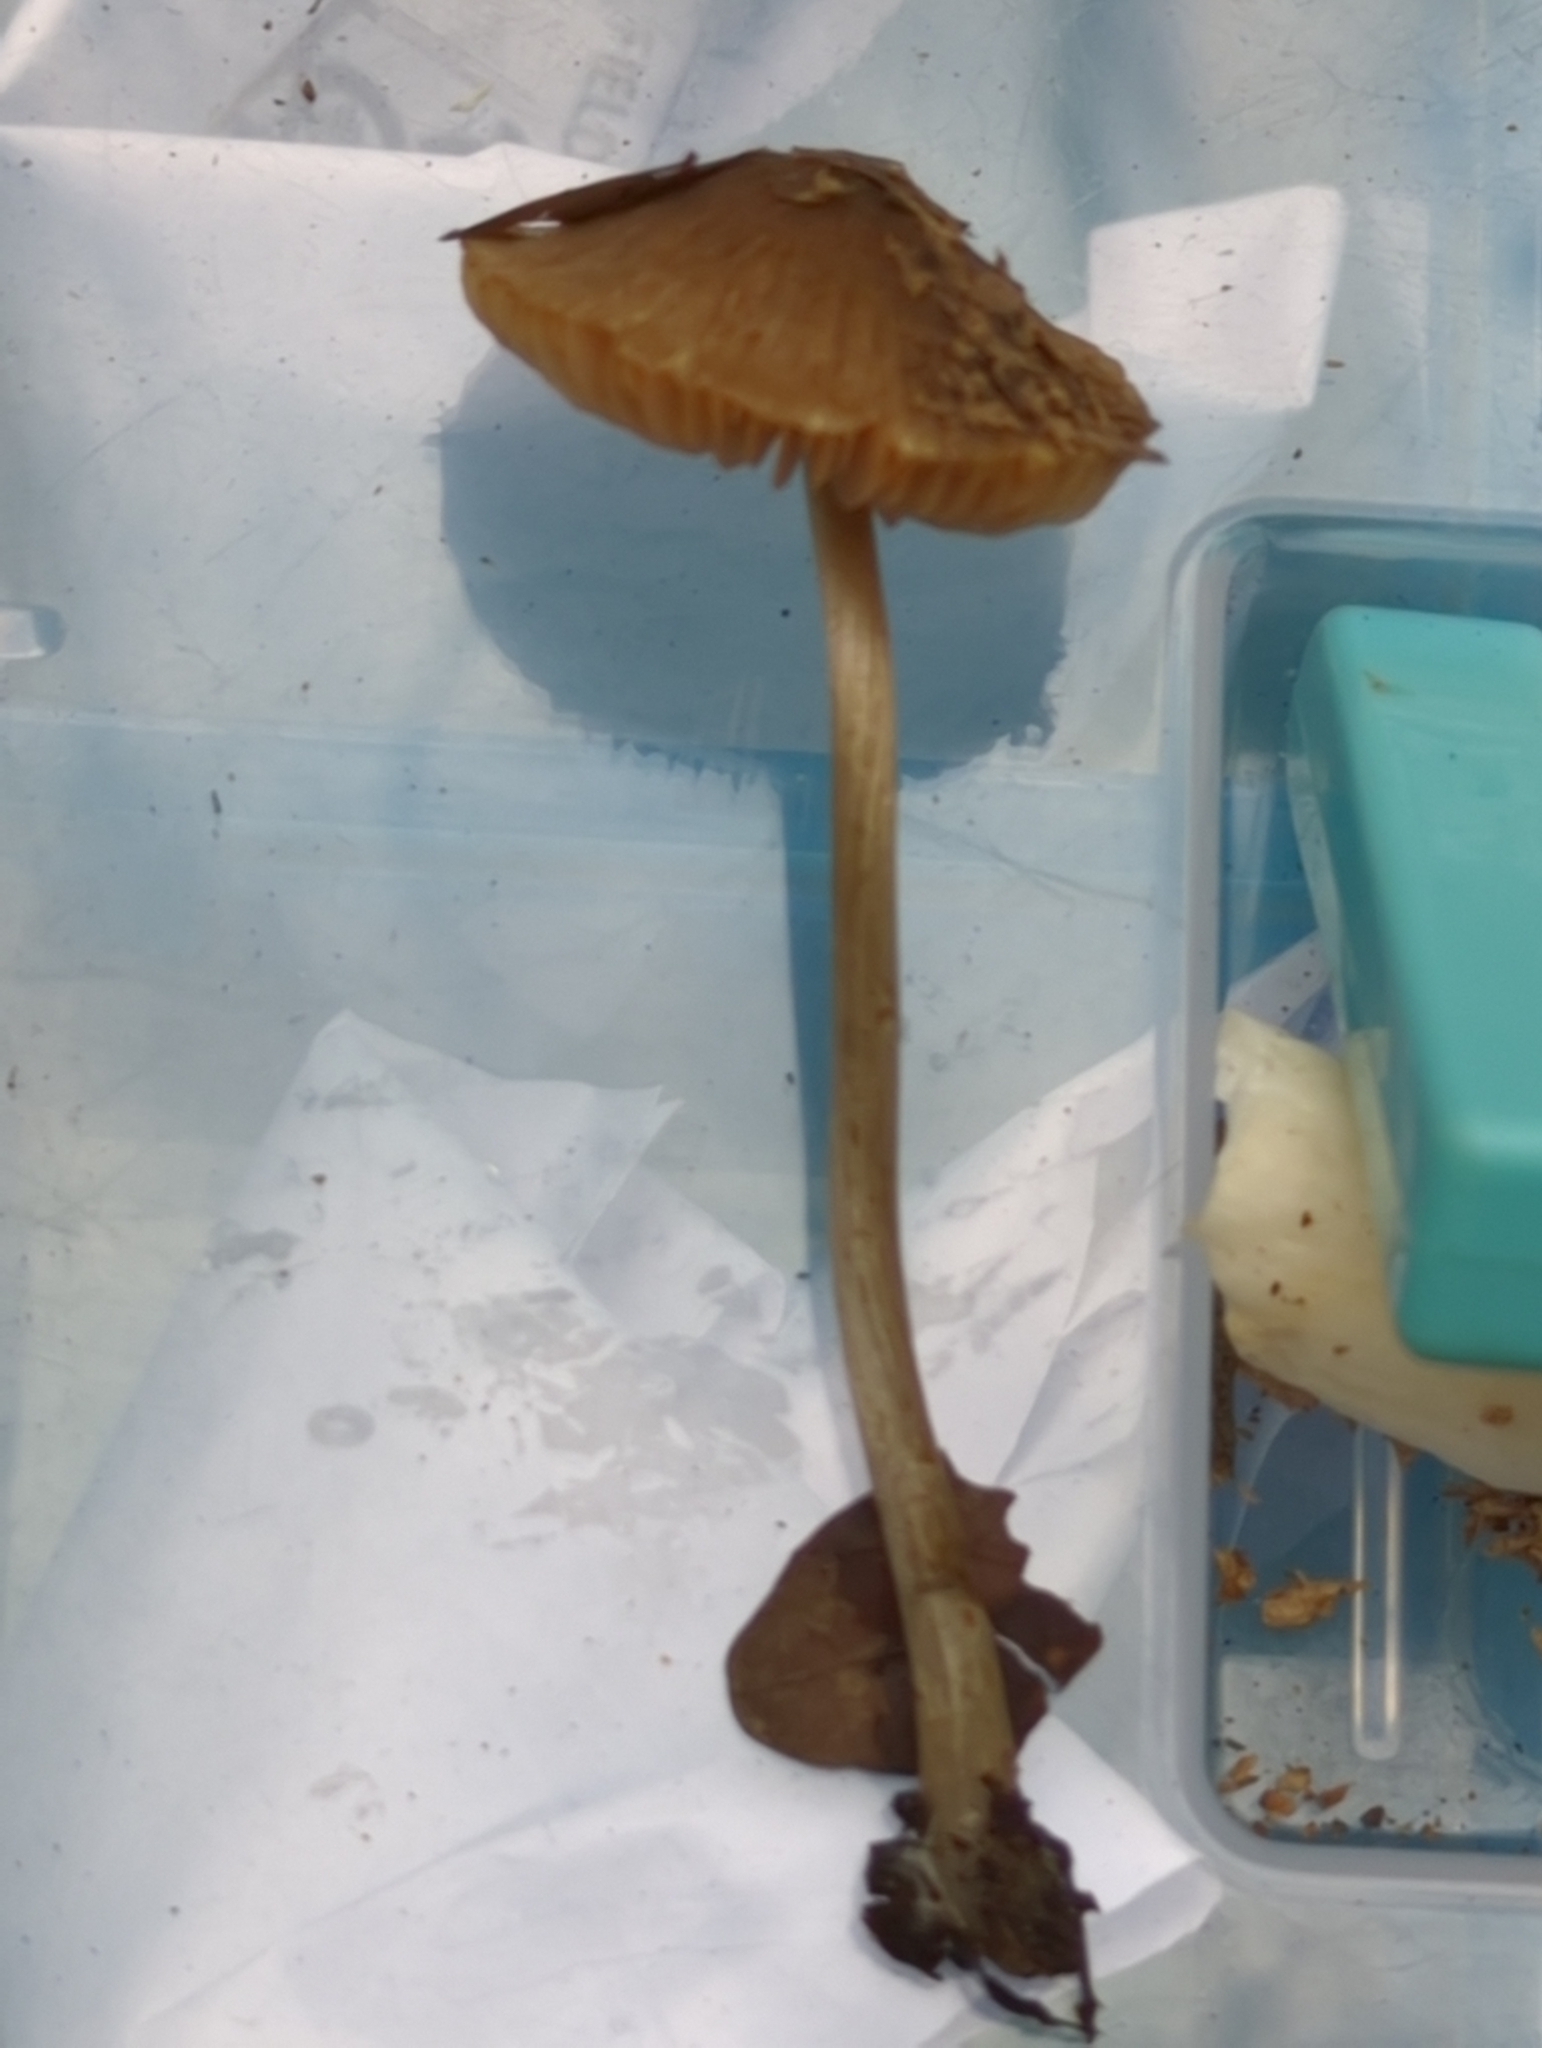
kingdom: Fungi
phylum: Basidiomycota
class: Agaricomycetes
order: Agaricales
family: Entolomataceae
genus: Entoloma
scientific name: Entoloma conferendum
